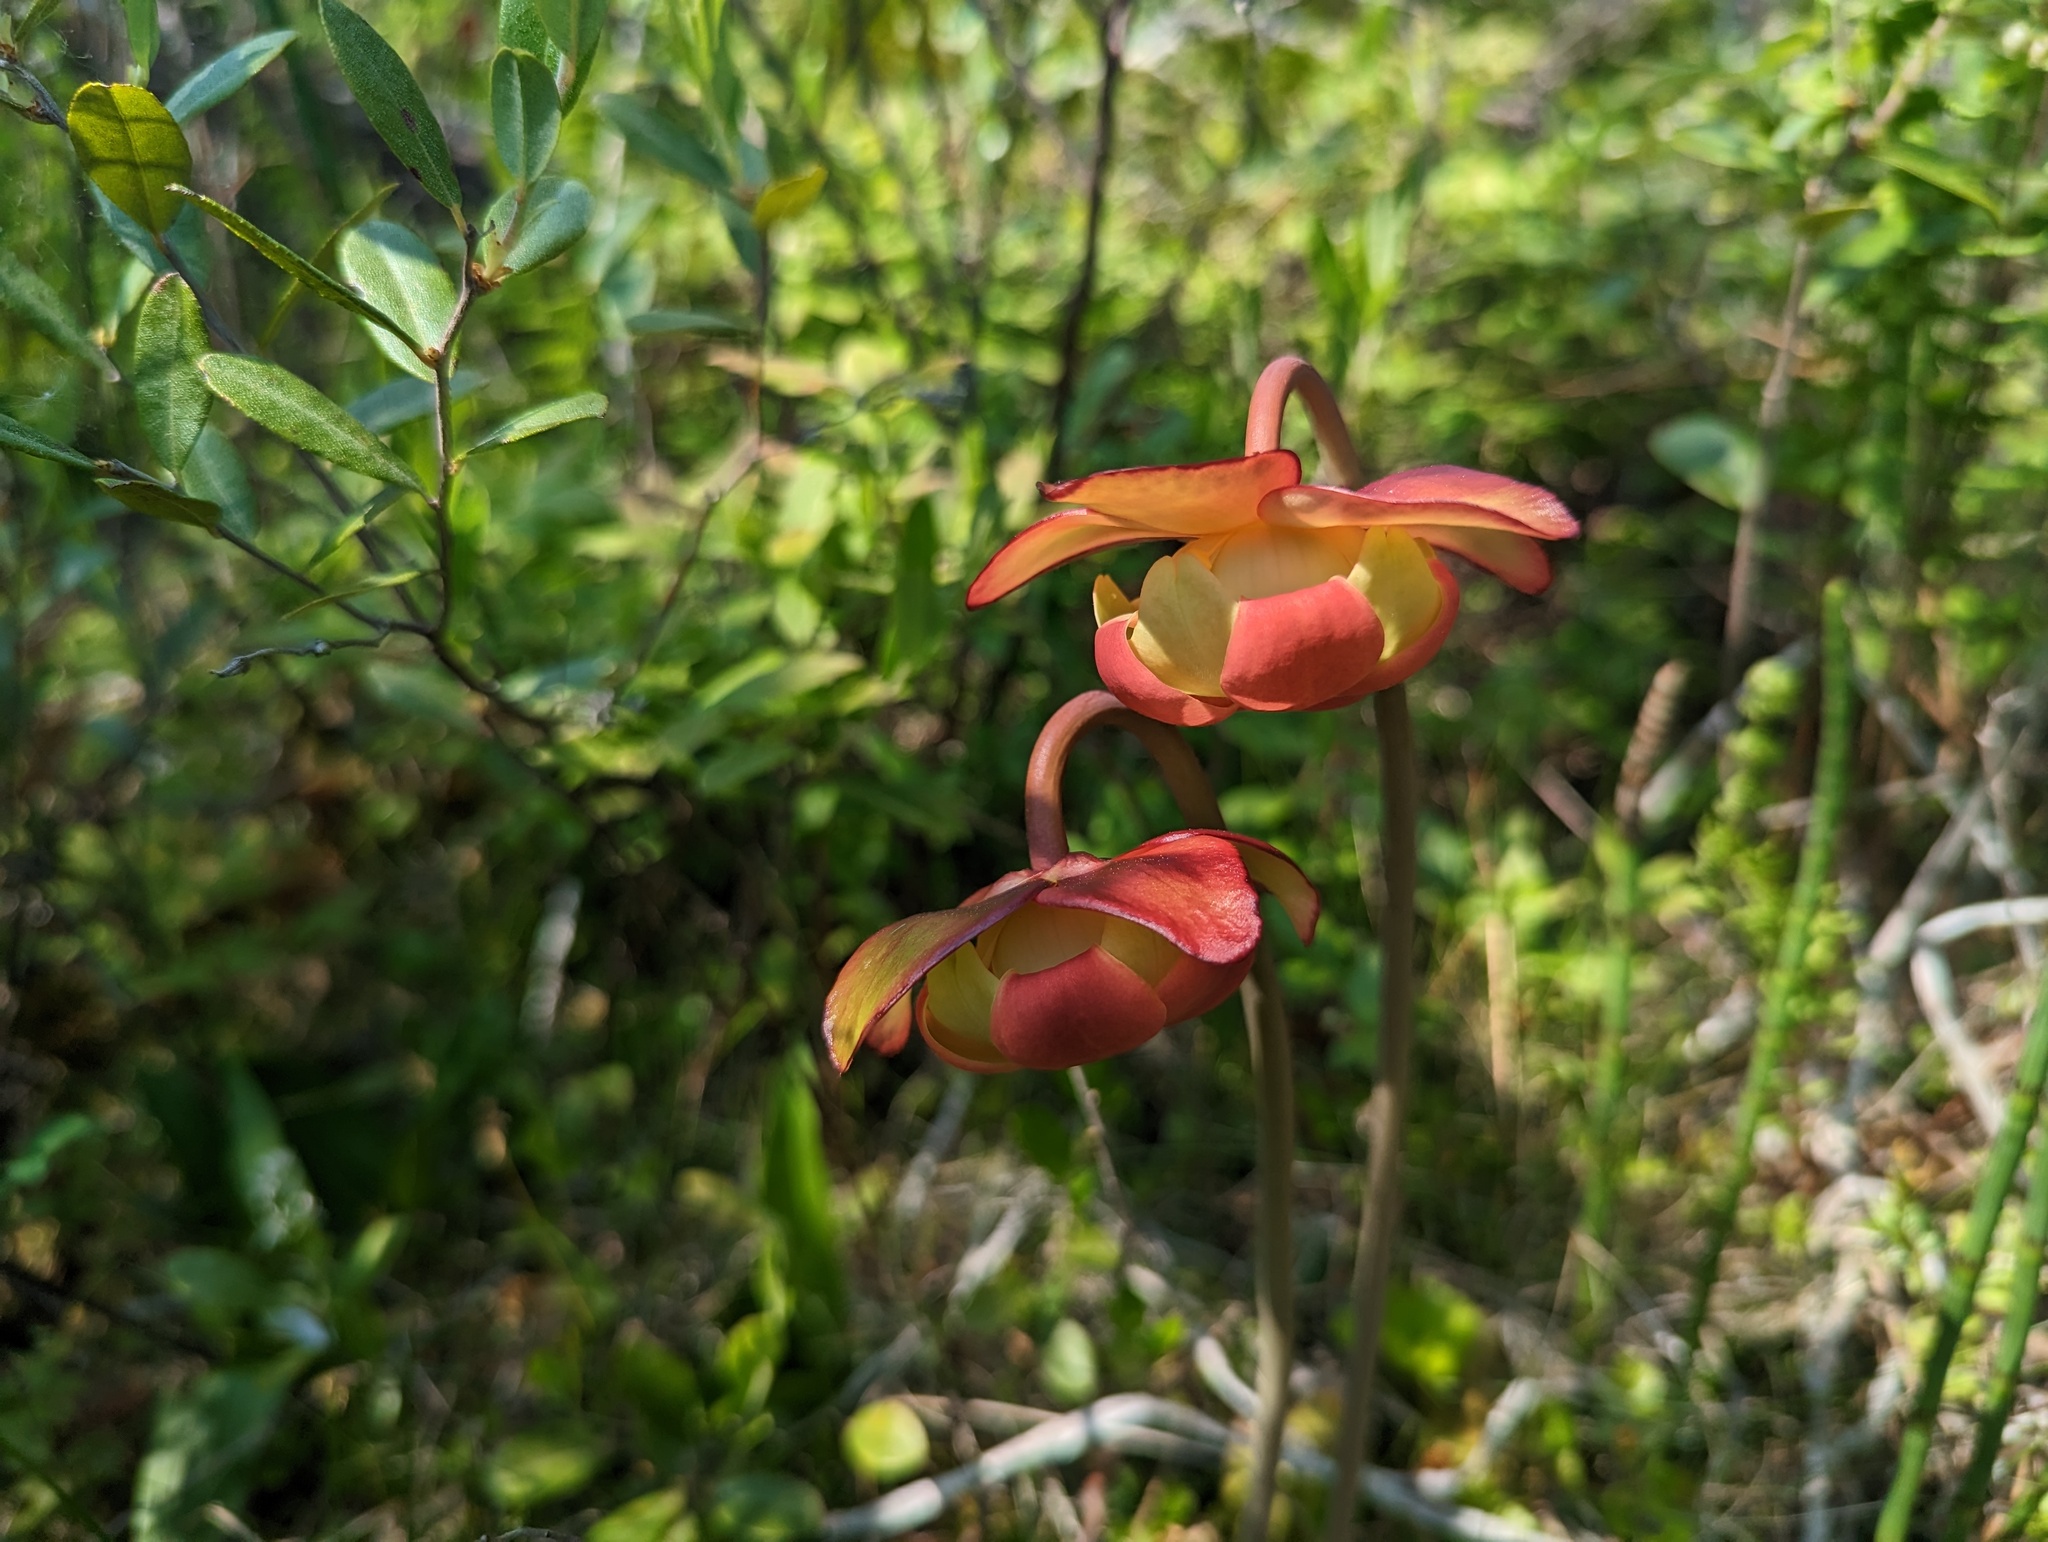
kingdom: Plantae
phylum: Tracheophyta
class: Magnoliopsida
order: Ericales
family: Sarraceniaceae
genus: Sarracenia
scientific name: Sarracenia purpurea
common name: Pitcherplant
